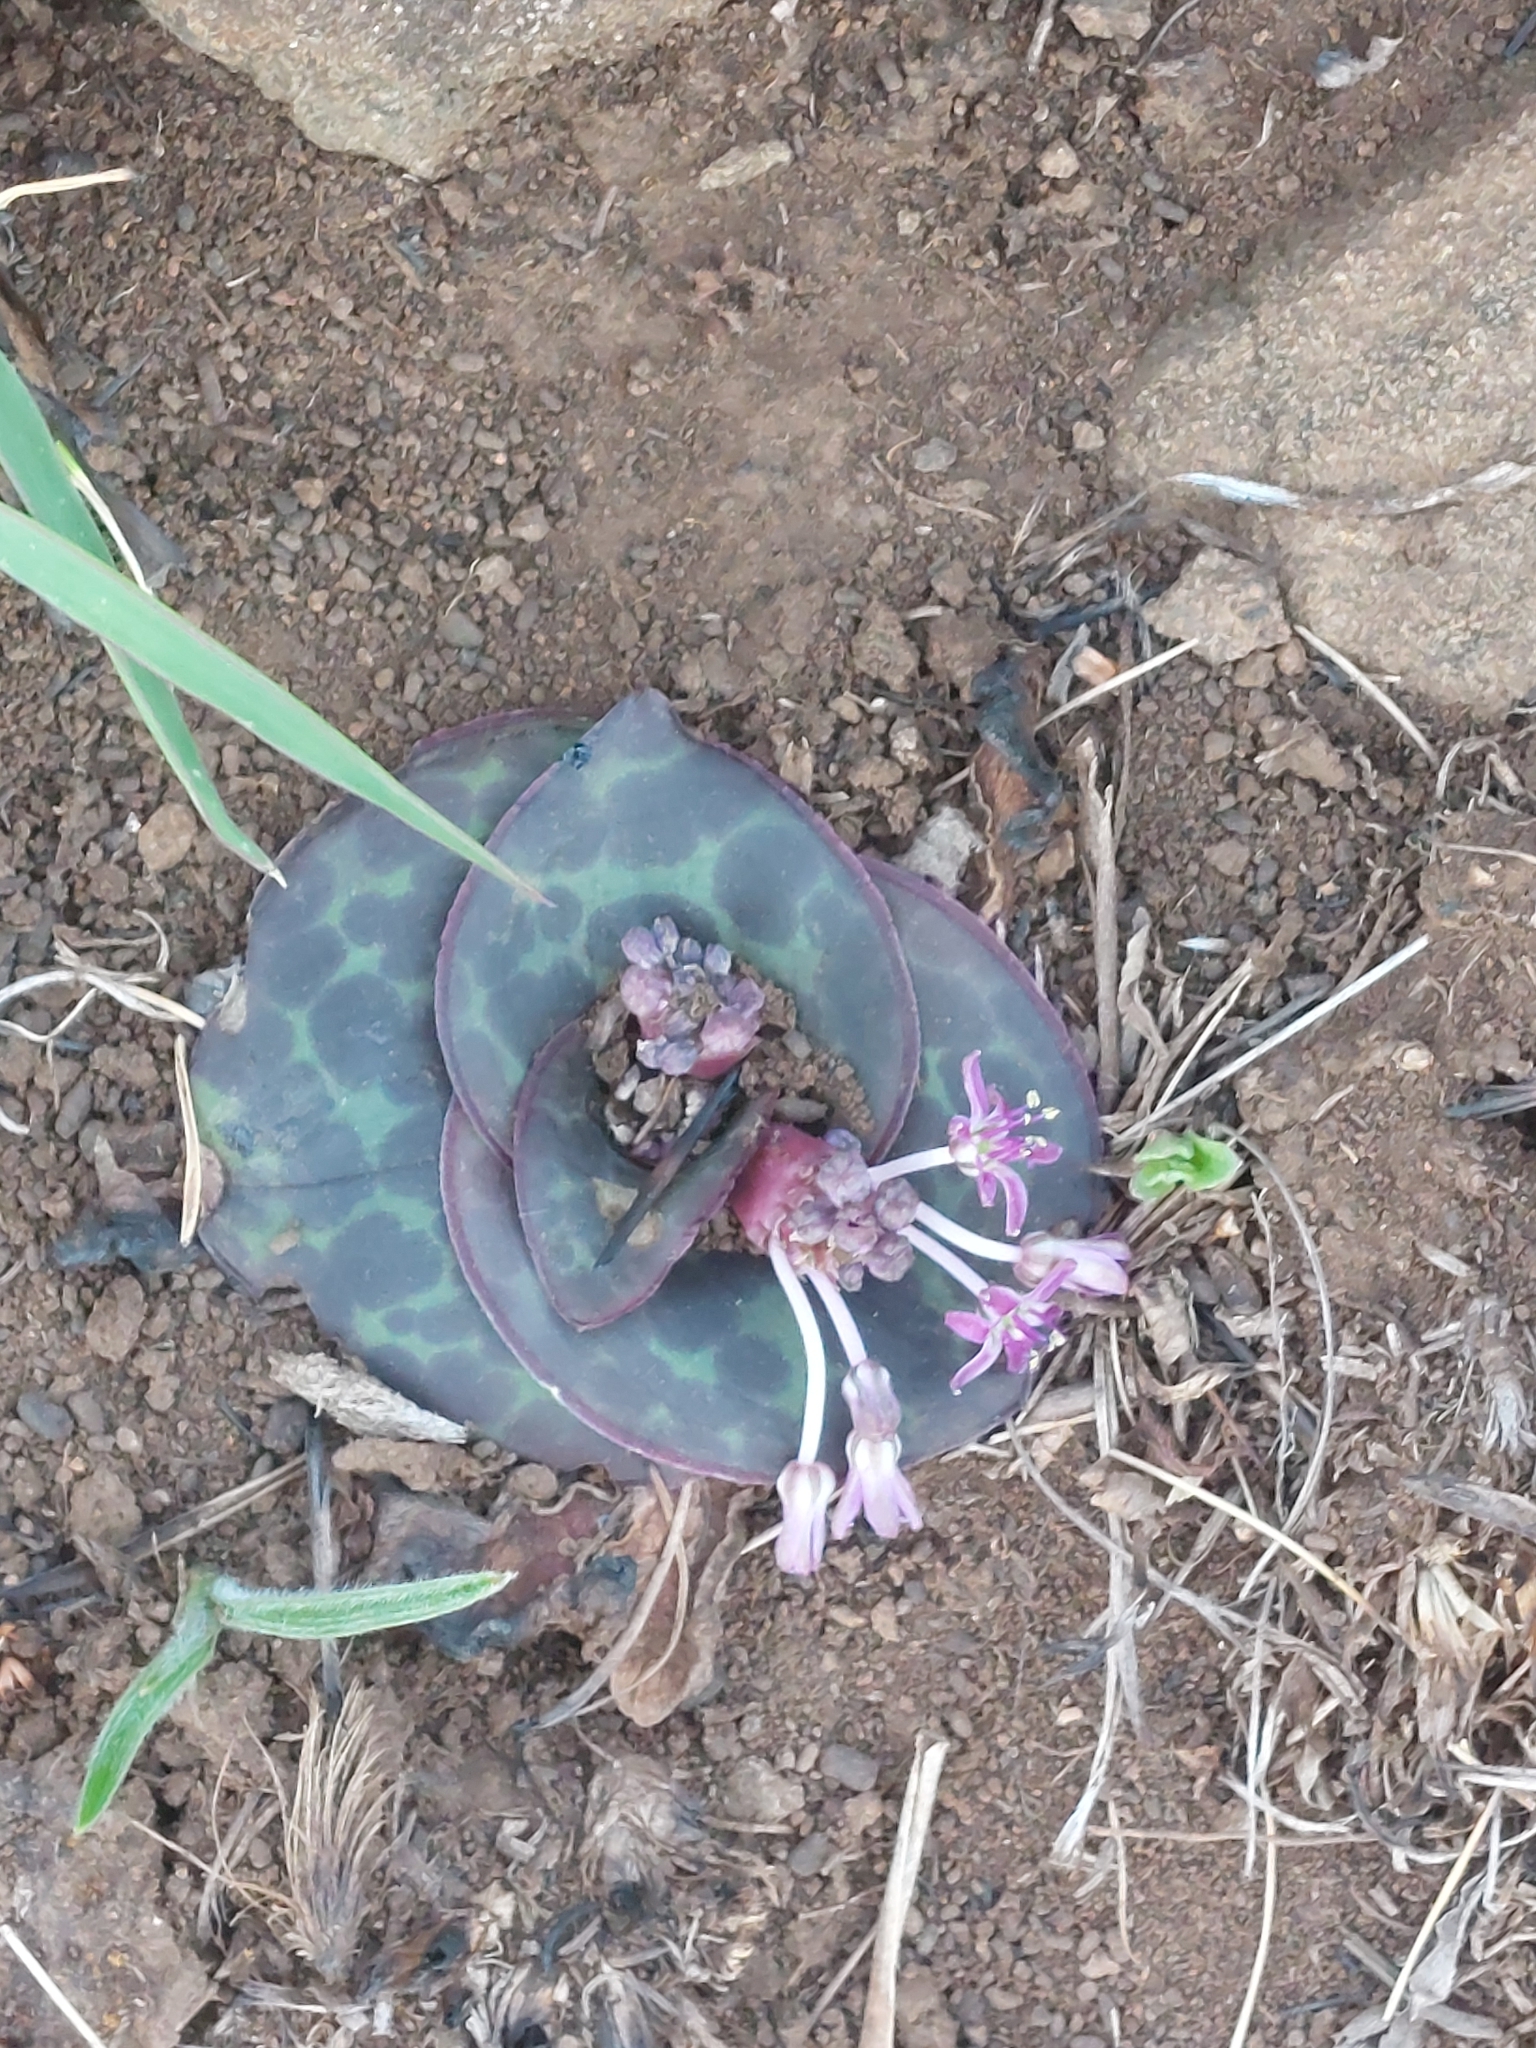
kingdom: Plantae
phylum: Tracheophyta
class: Liliopsida
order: Asparagales
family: Asparagaceae
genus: Ledebouria
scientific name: Ledebouria ovatifolia
